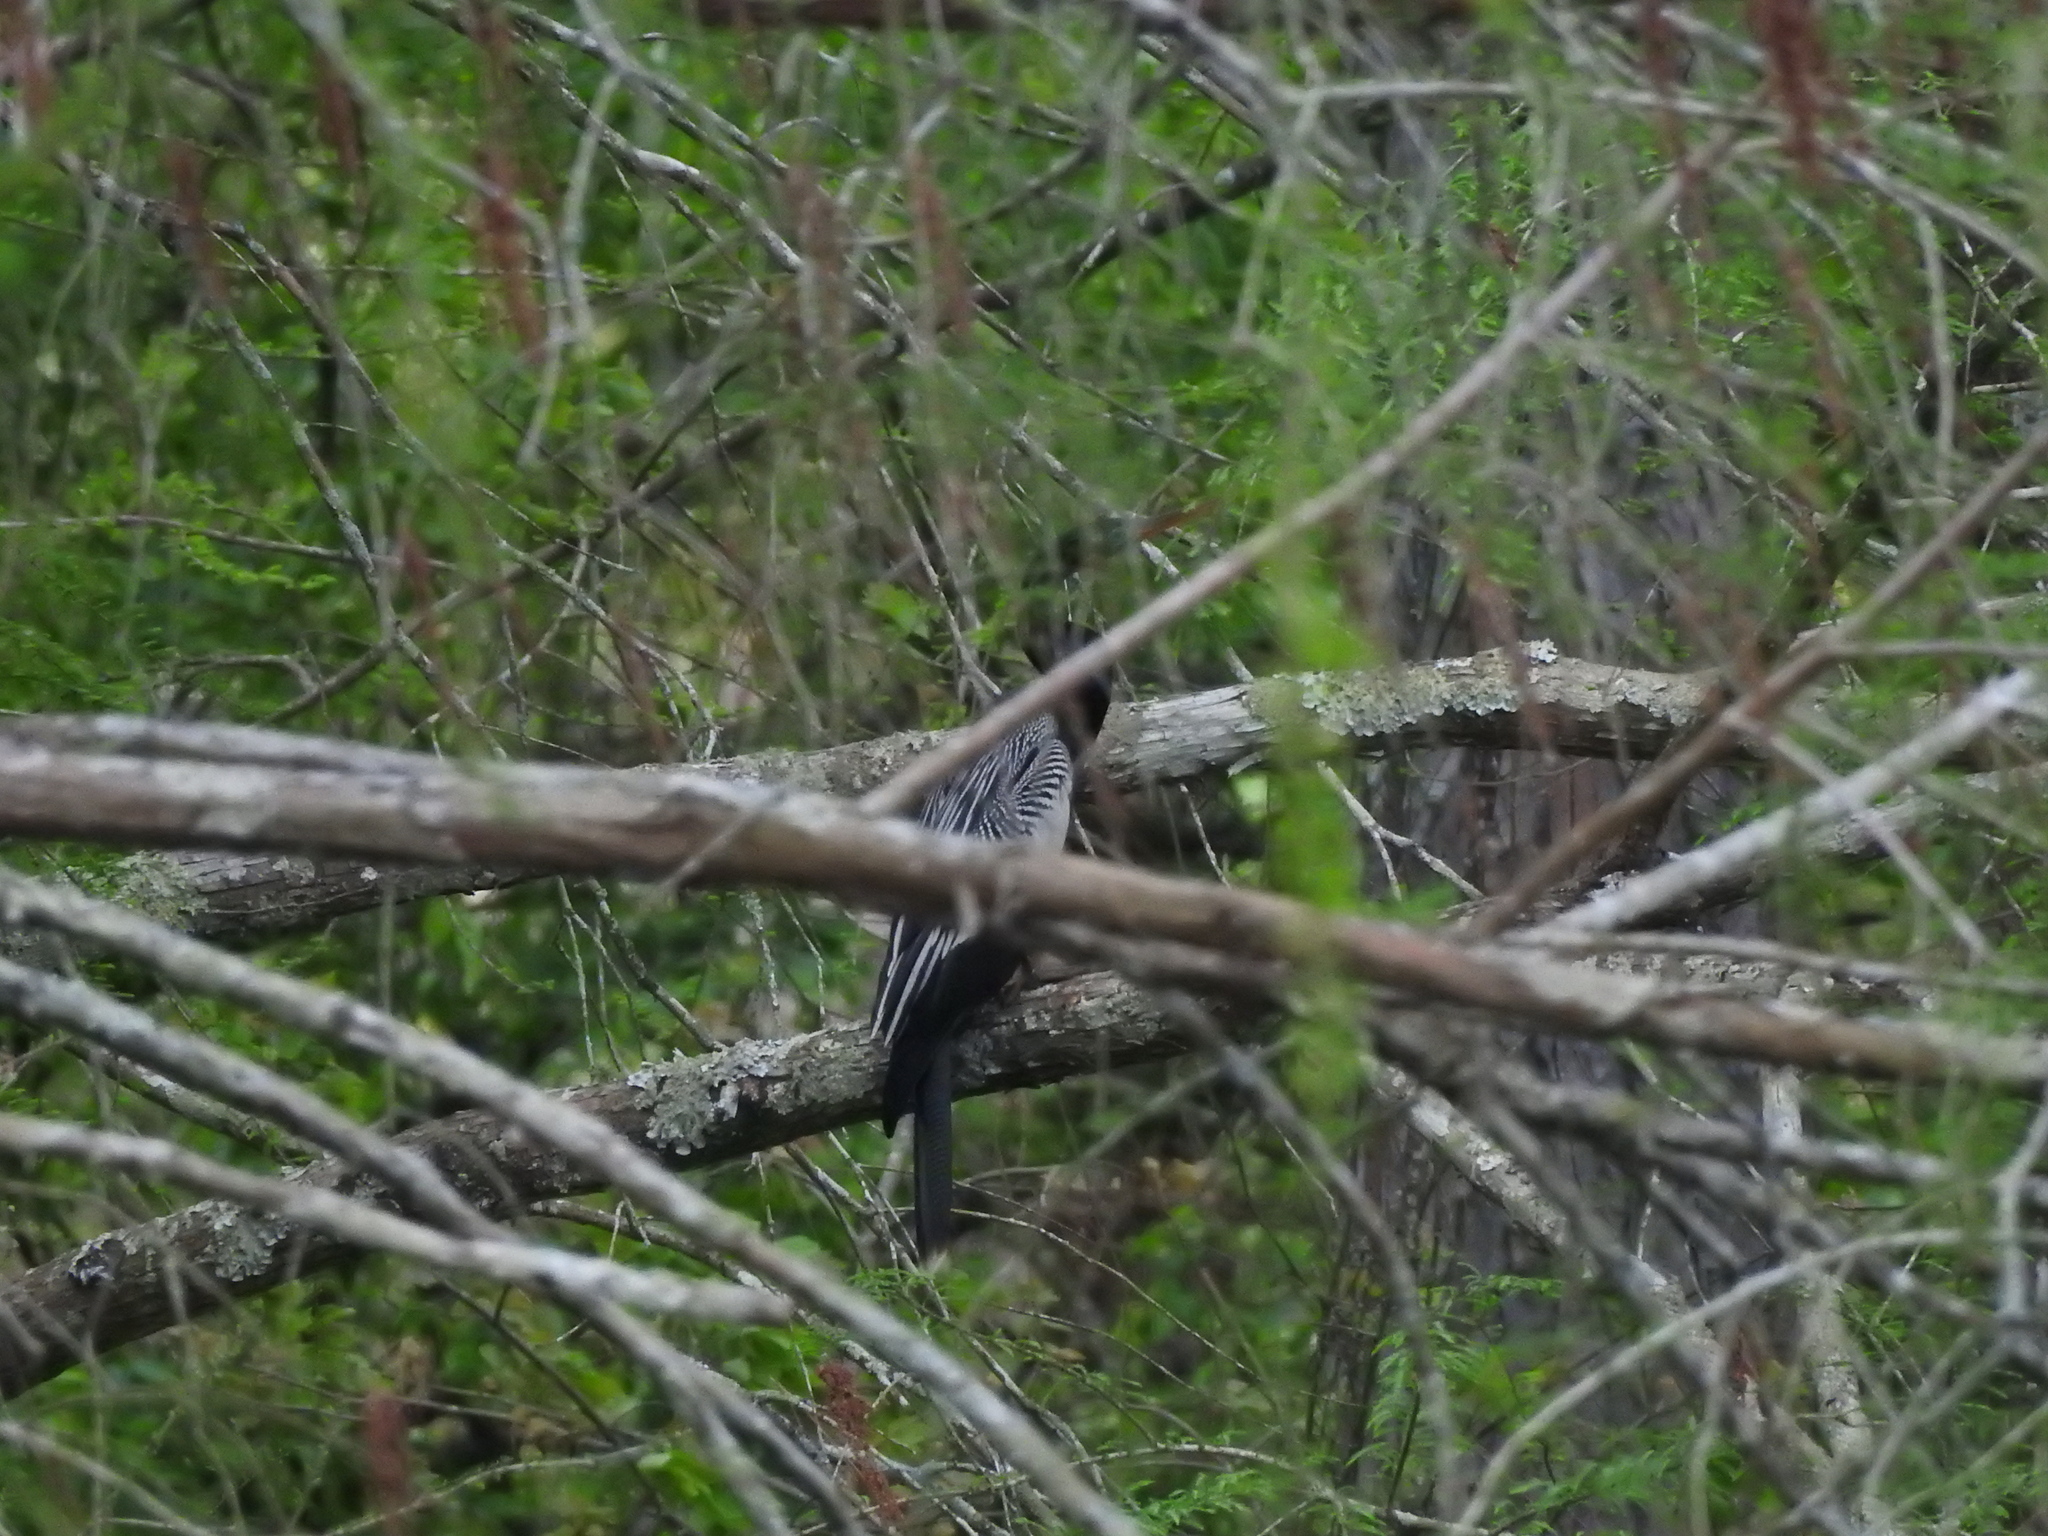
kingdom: Animalia
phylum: Chordata
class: Aves
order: Suliformes
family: Anhingidae
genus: Anhinga
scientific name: Anhinga anhinga
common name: Anhinga
